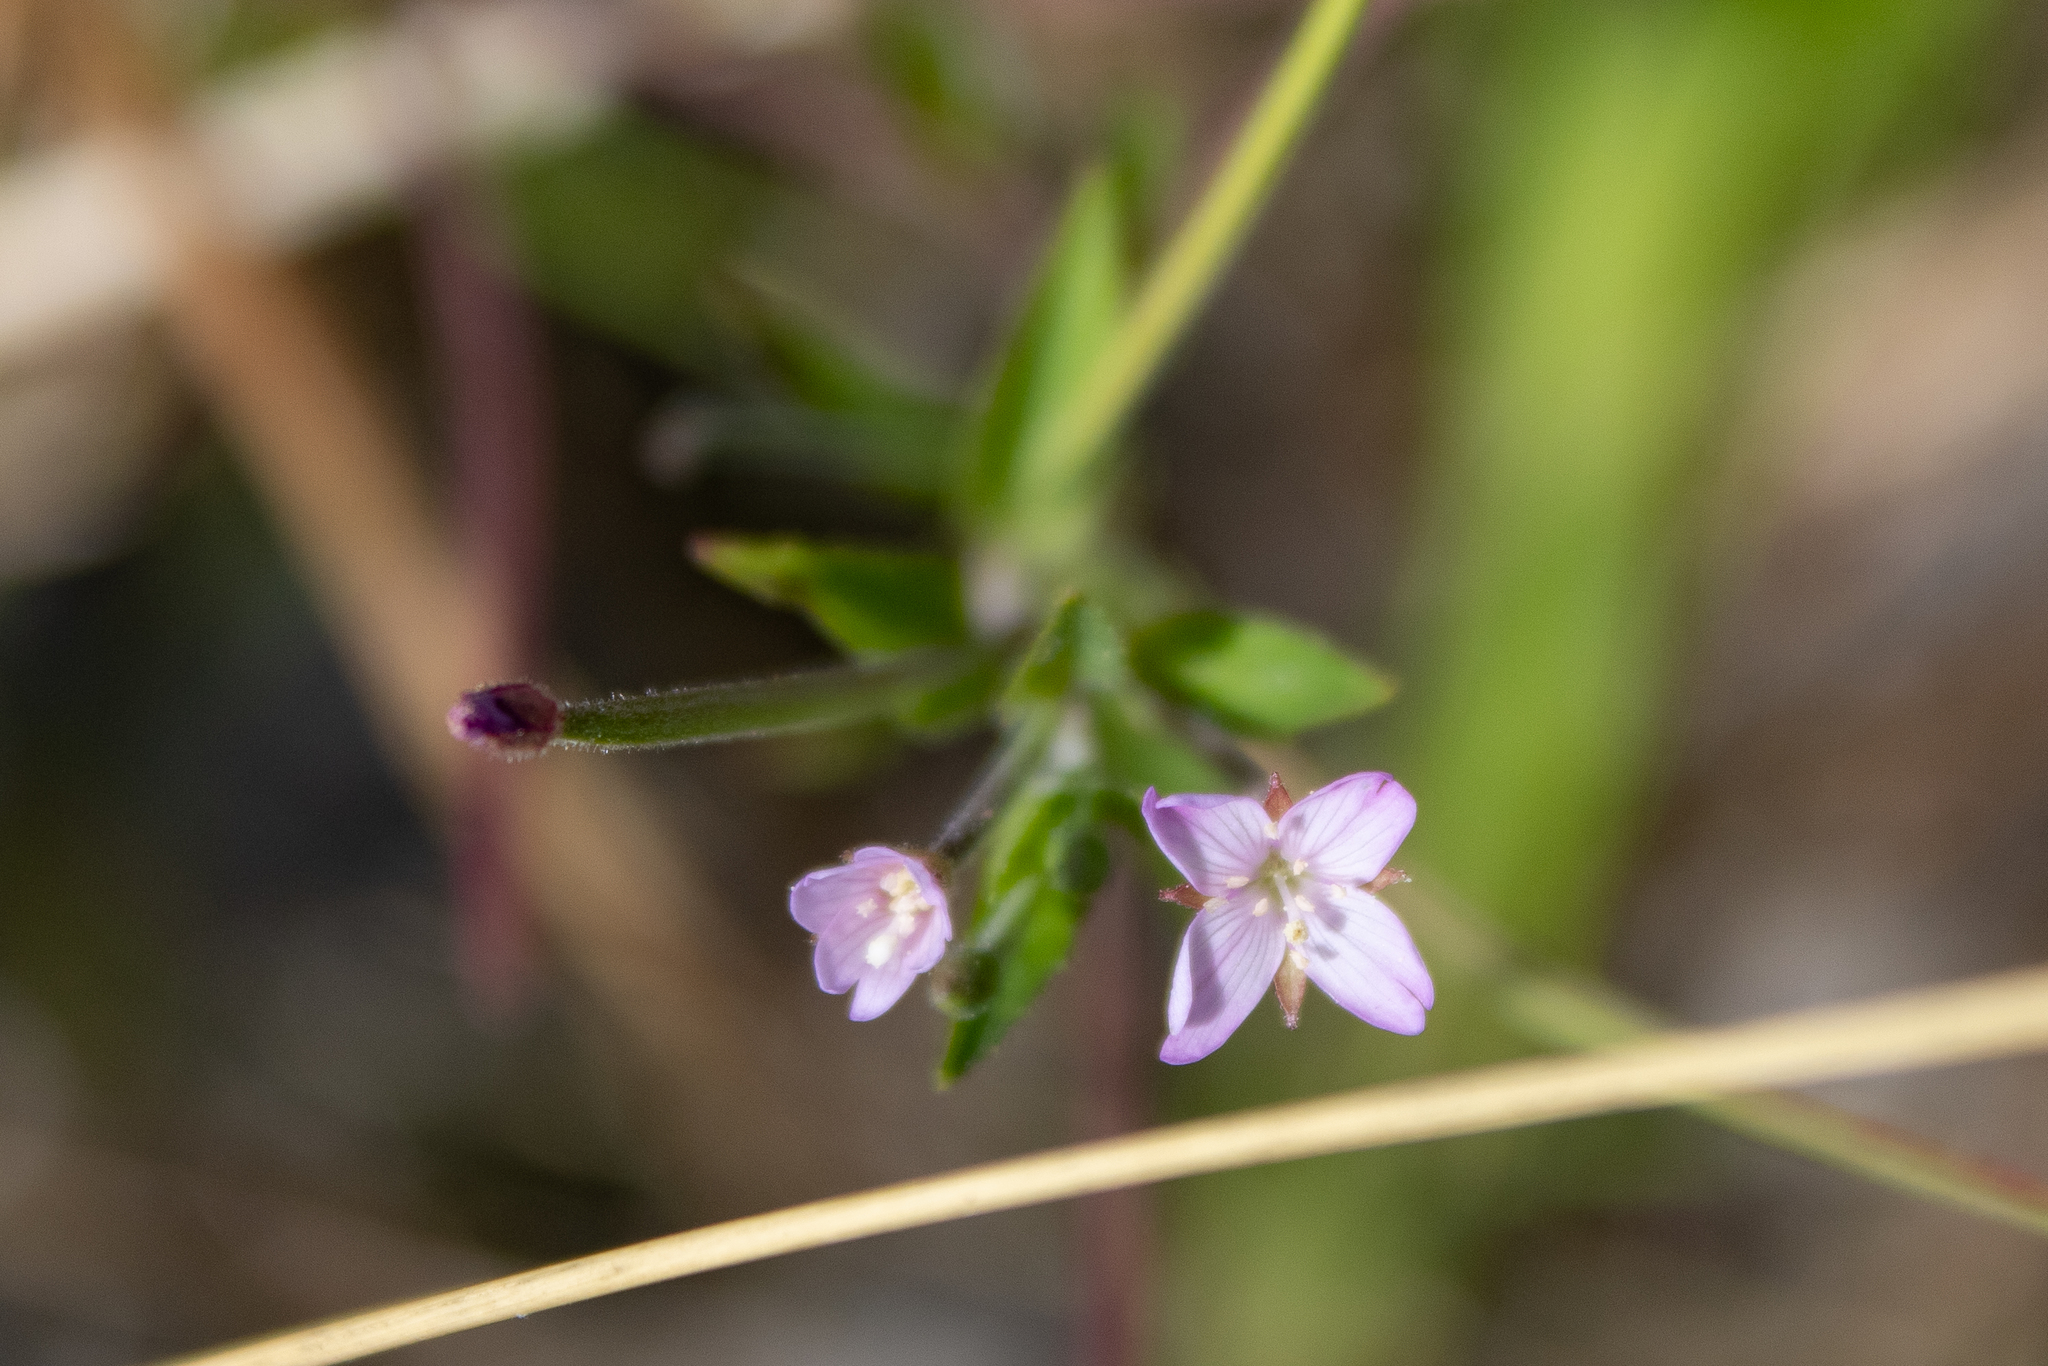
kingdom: Plantae
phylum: Tracheophyta
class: Magnoliopsida
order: Myrtales
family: Onagraceae
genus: Epilobium
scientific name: Epilobium ciliatum
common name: American willowherb
